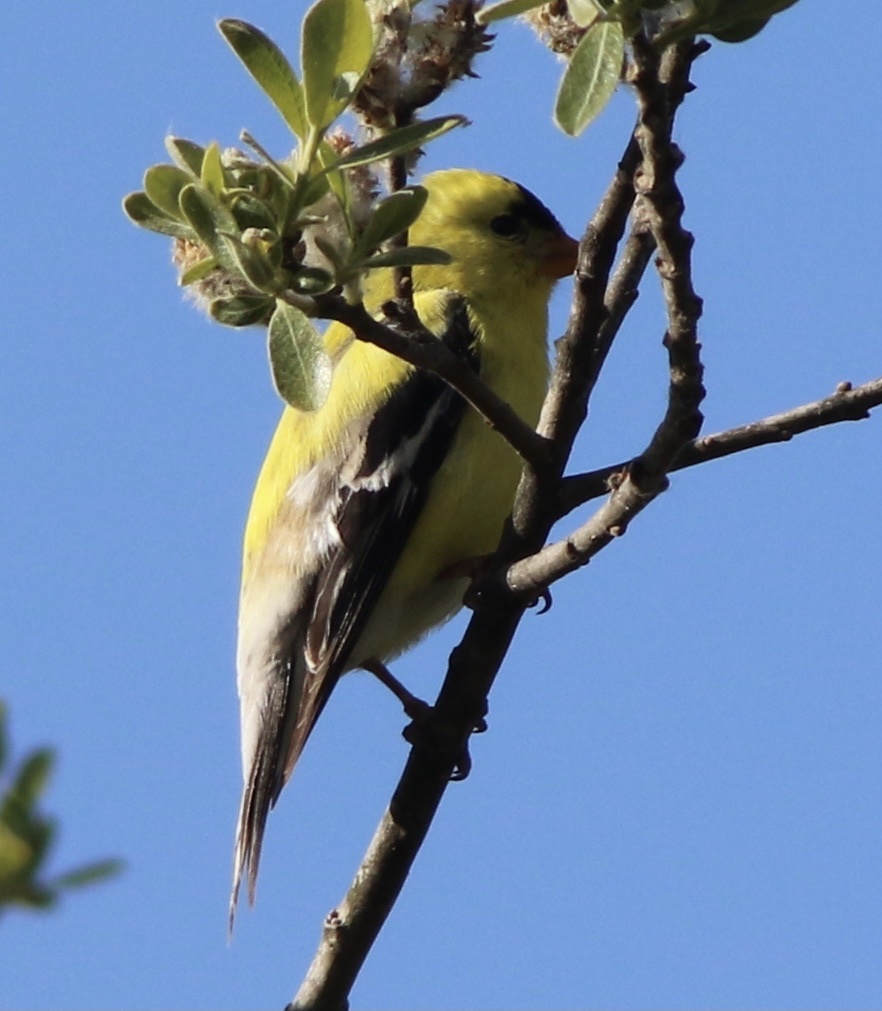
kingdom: Animalia
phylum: Chordata
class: Aves
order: Passeriformes
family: Fringillidae
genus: Spinus
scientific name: Spinus tristis
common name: American goldfinch
